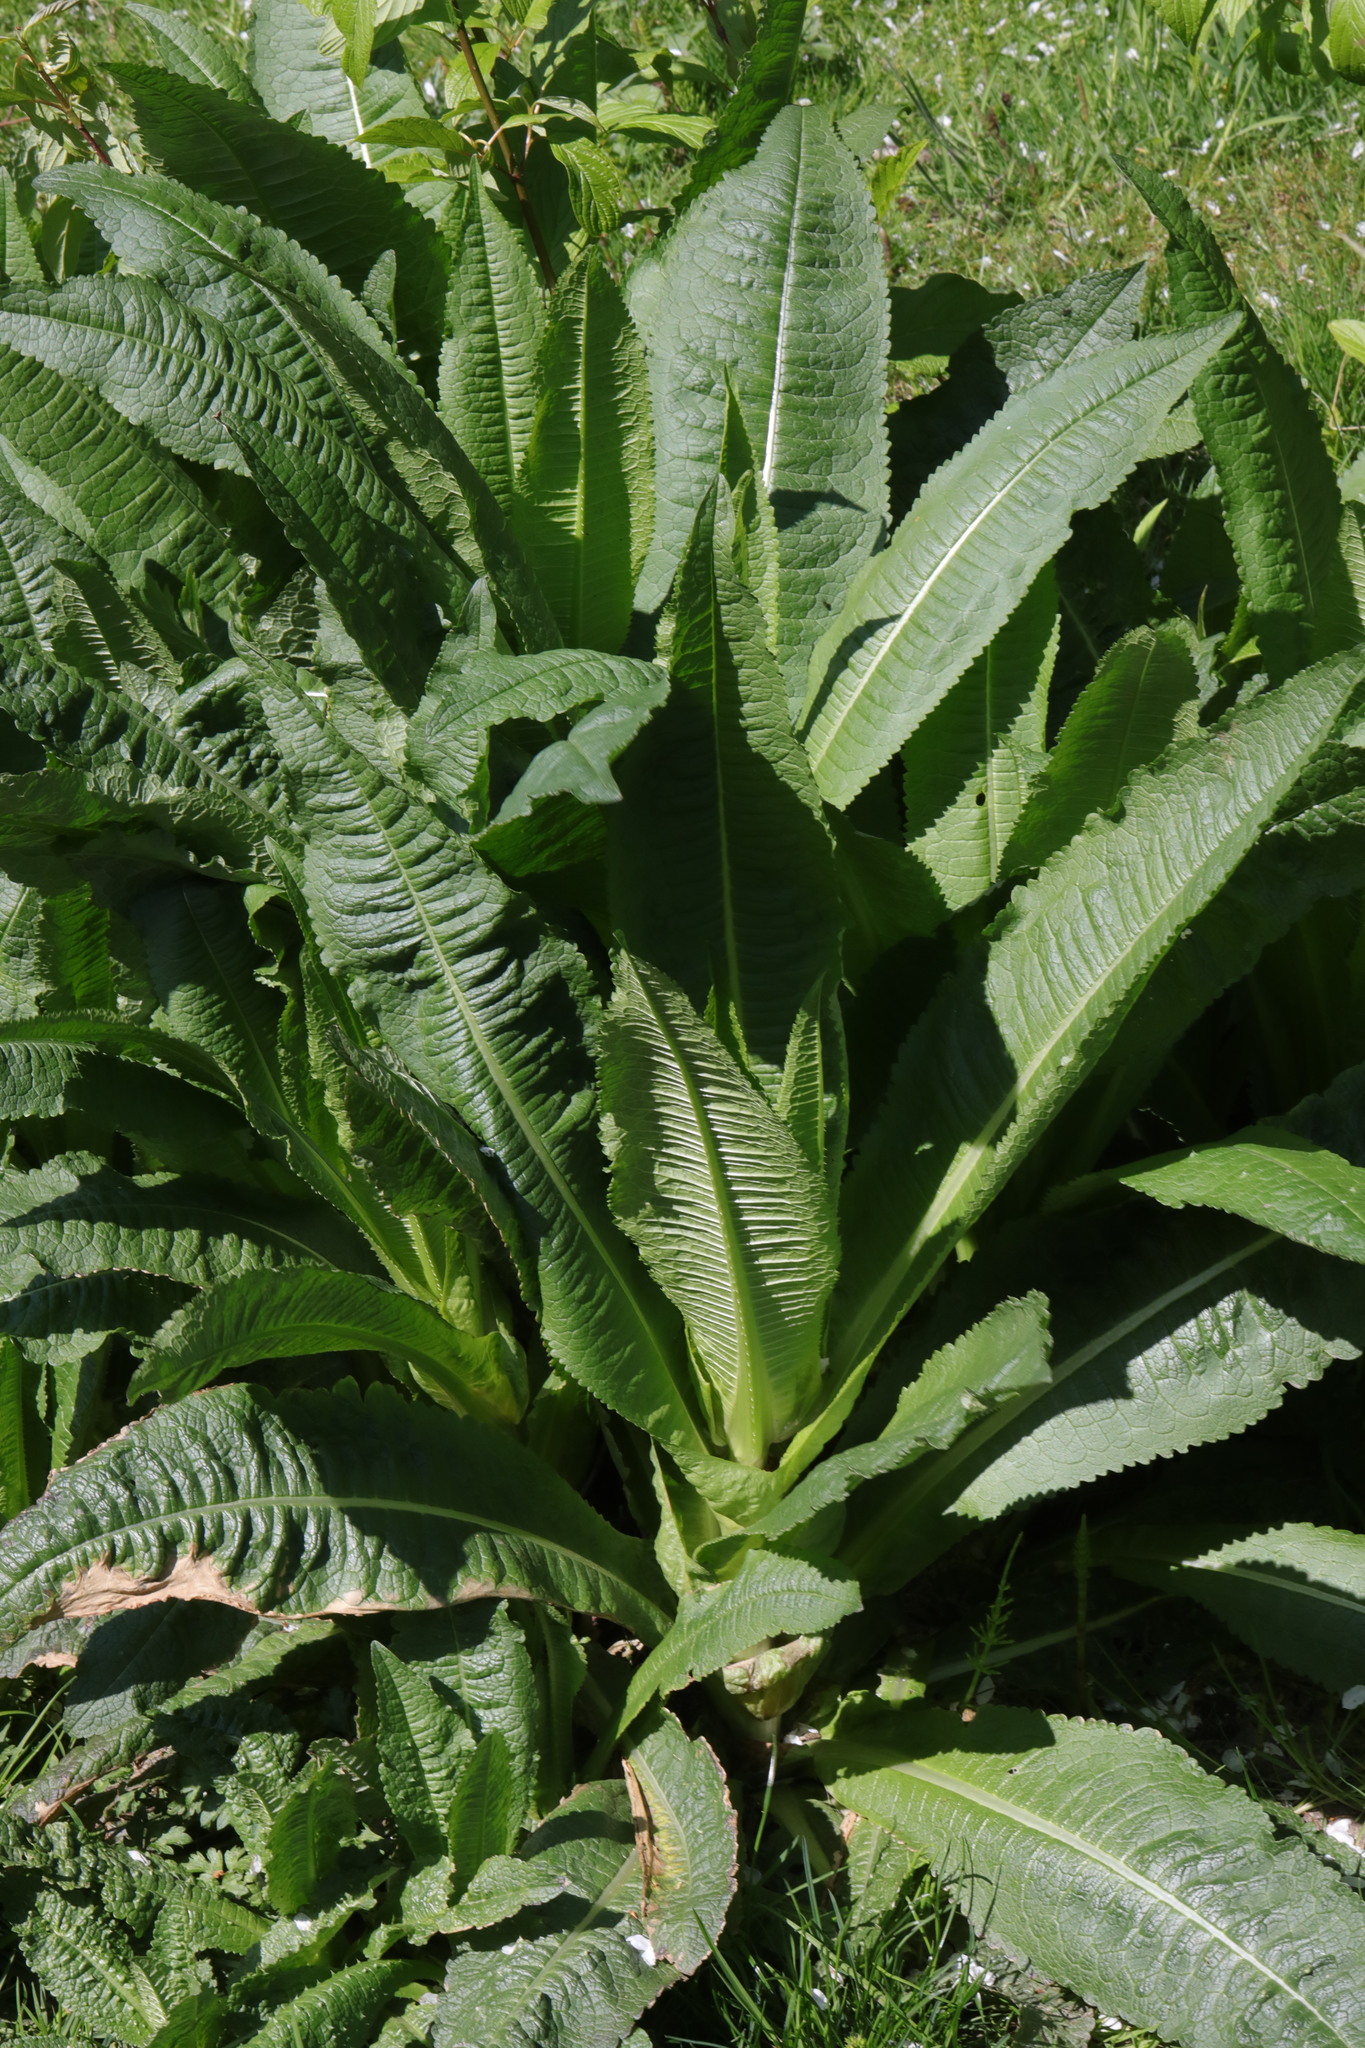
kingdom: Plantae
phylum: Tracheophyta
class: Magnoliopsida
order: Dipsacales
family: Caprifoliaceae
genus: Dipsacus
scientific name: Dipsacus fullonum
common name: Teasel
